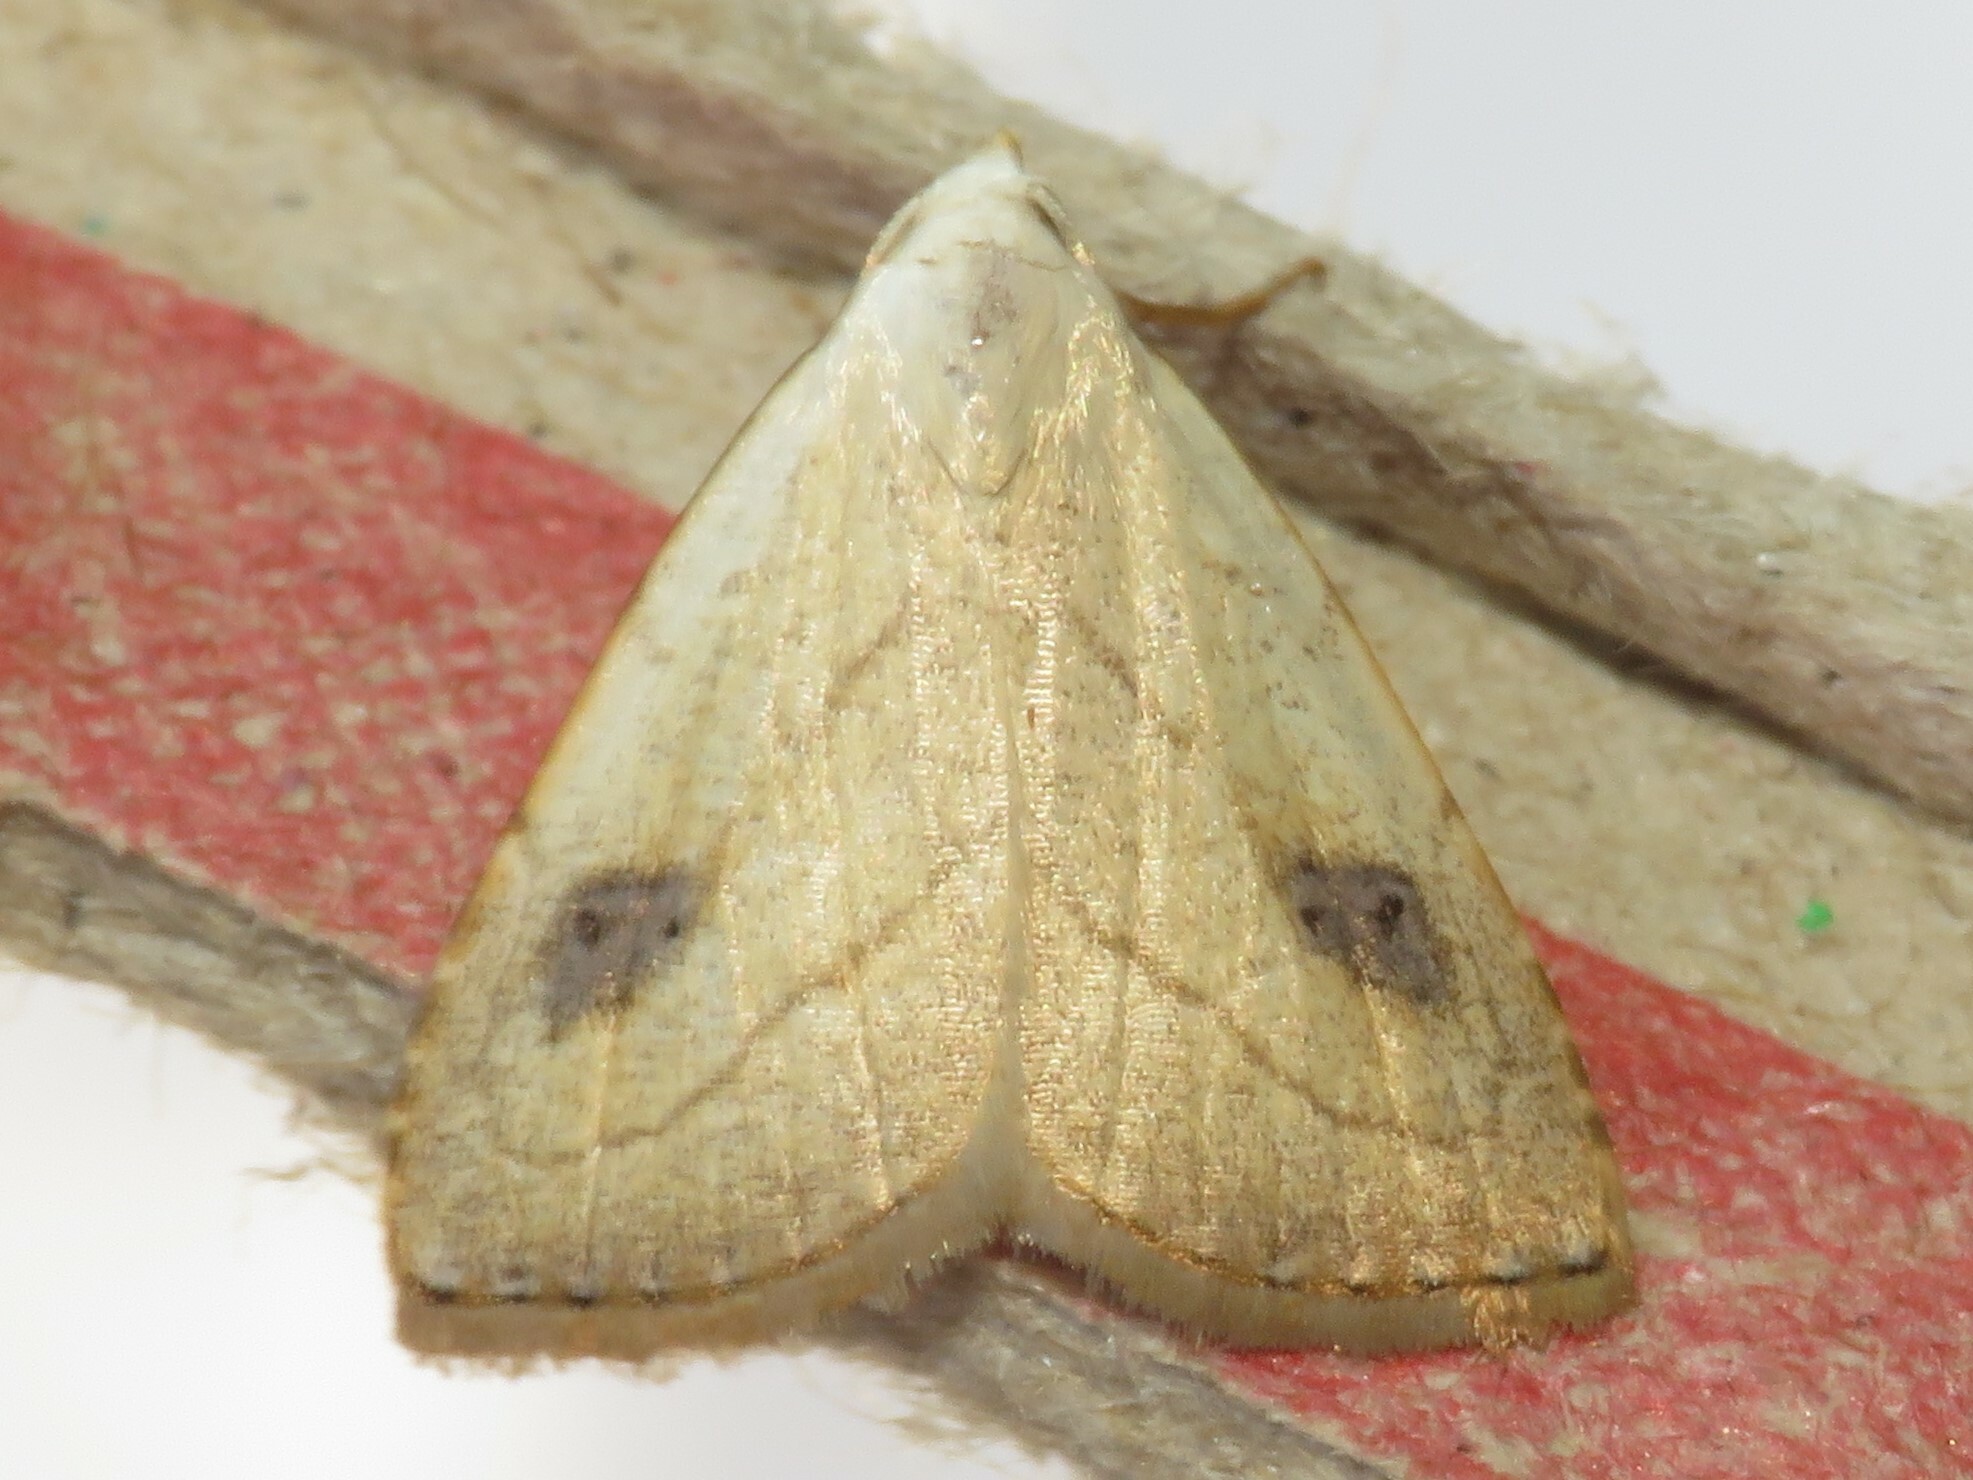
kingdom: Animalia
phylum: Arthropoda
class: Insecta
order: Lepidoptera
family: Erebidae
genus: Rivula
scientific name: Rivula propinqualis
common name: Spotted grass moth
